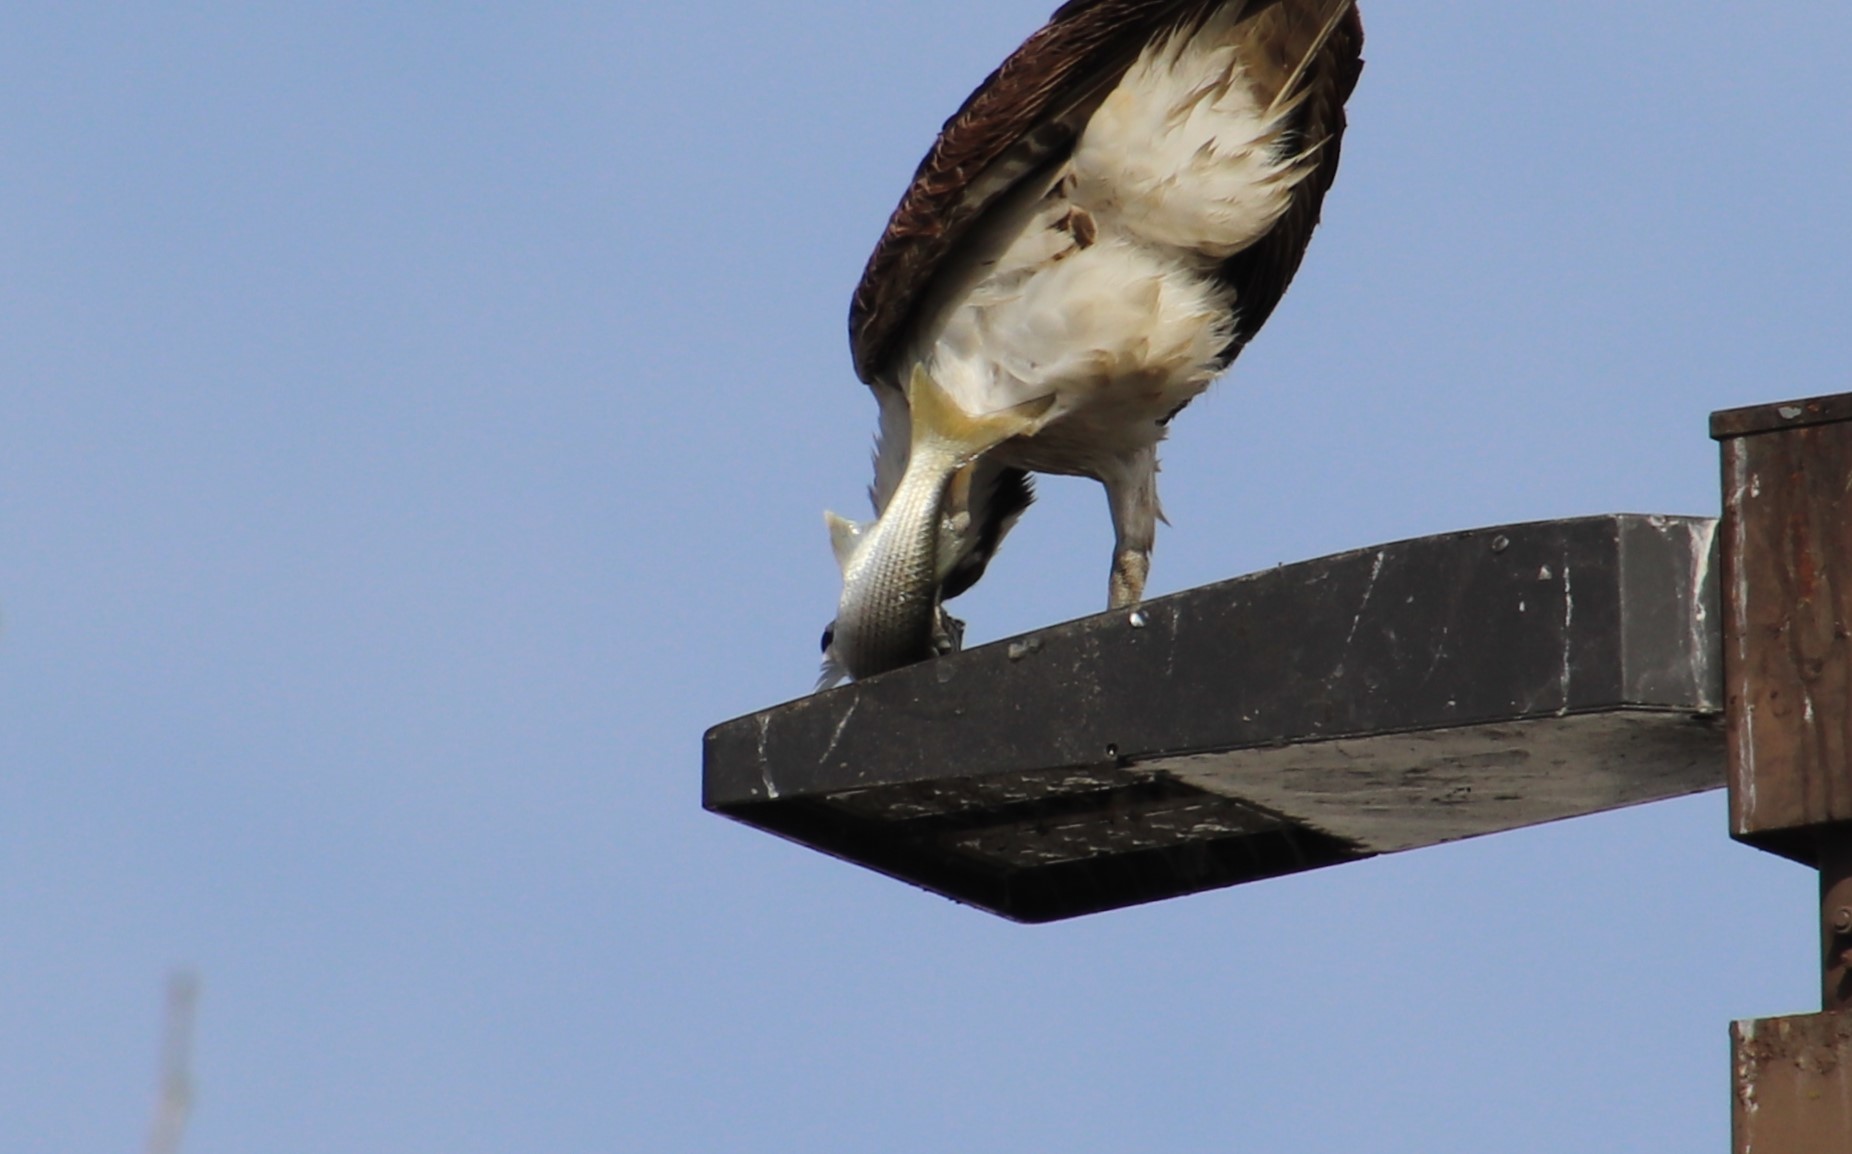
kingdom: Animalia
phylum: Chordata
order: Mugiliformes
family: Mugilidae
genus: Mugil
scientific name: Mugil cephalus
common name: Grey mullet
